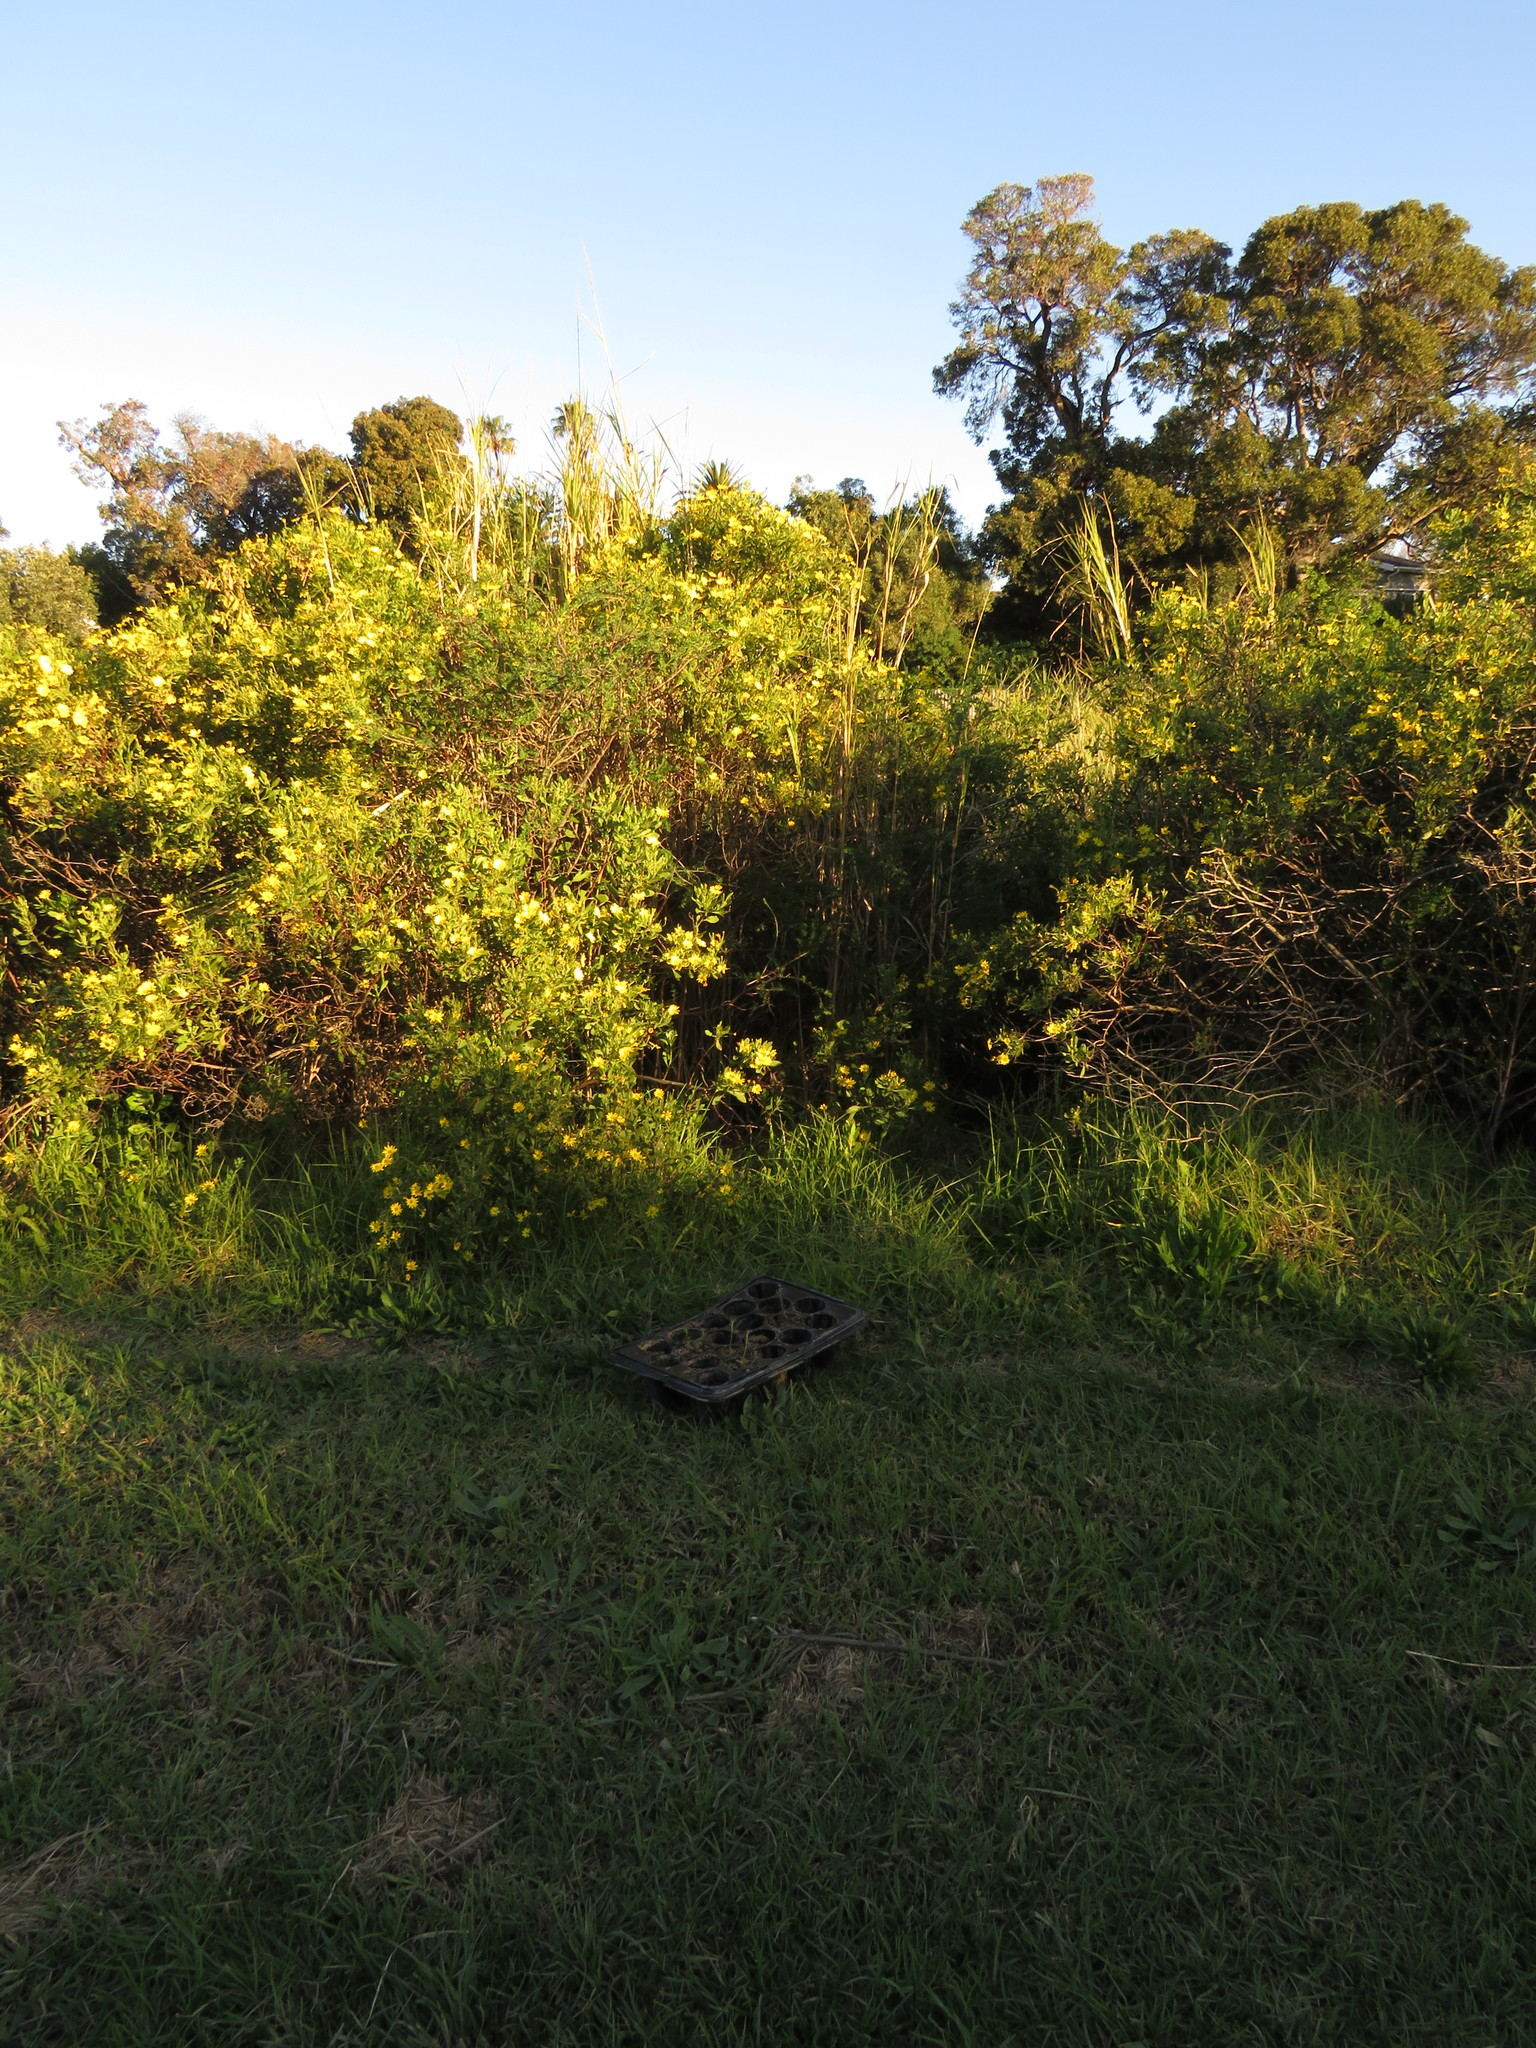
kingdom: Plantae
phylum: Tracheophyta
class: Magnoliopsida
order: Fabales
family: Fabaceae
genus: Genista
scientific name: Genista monspessulana
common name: Montpellier broom
